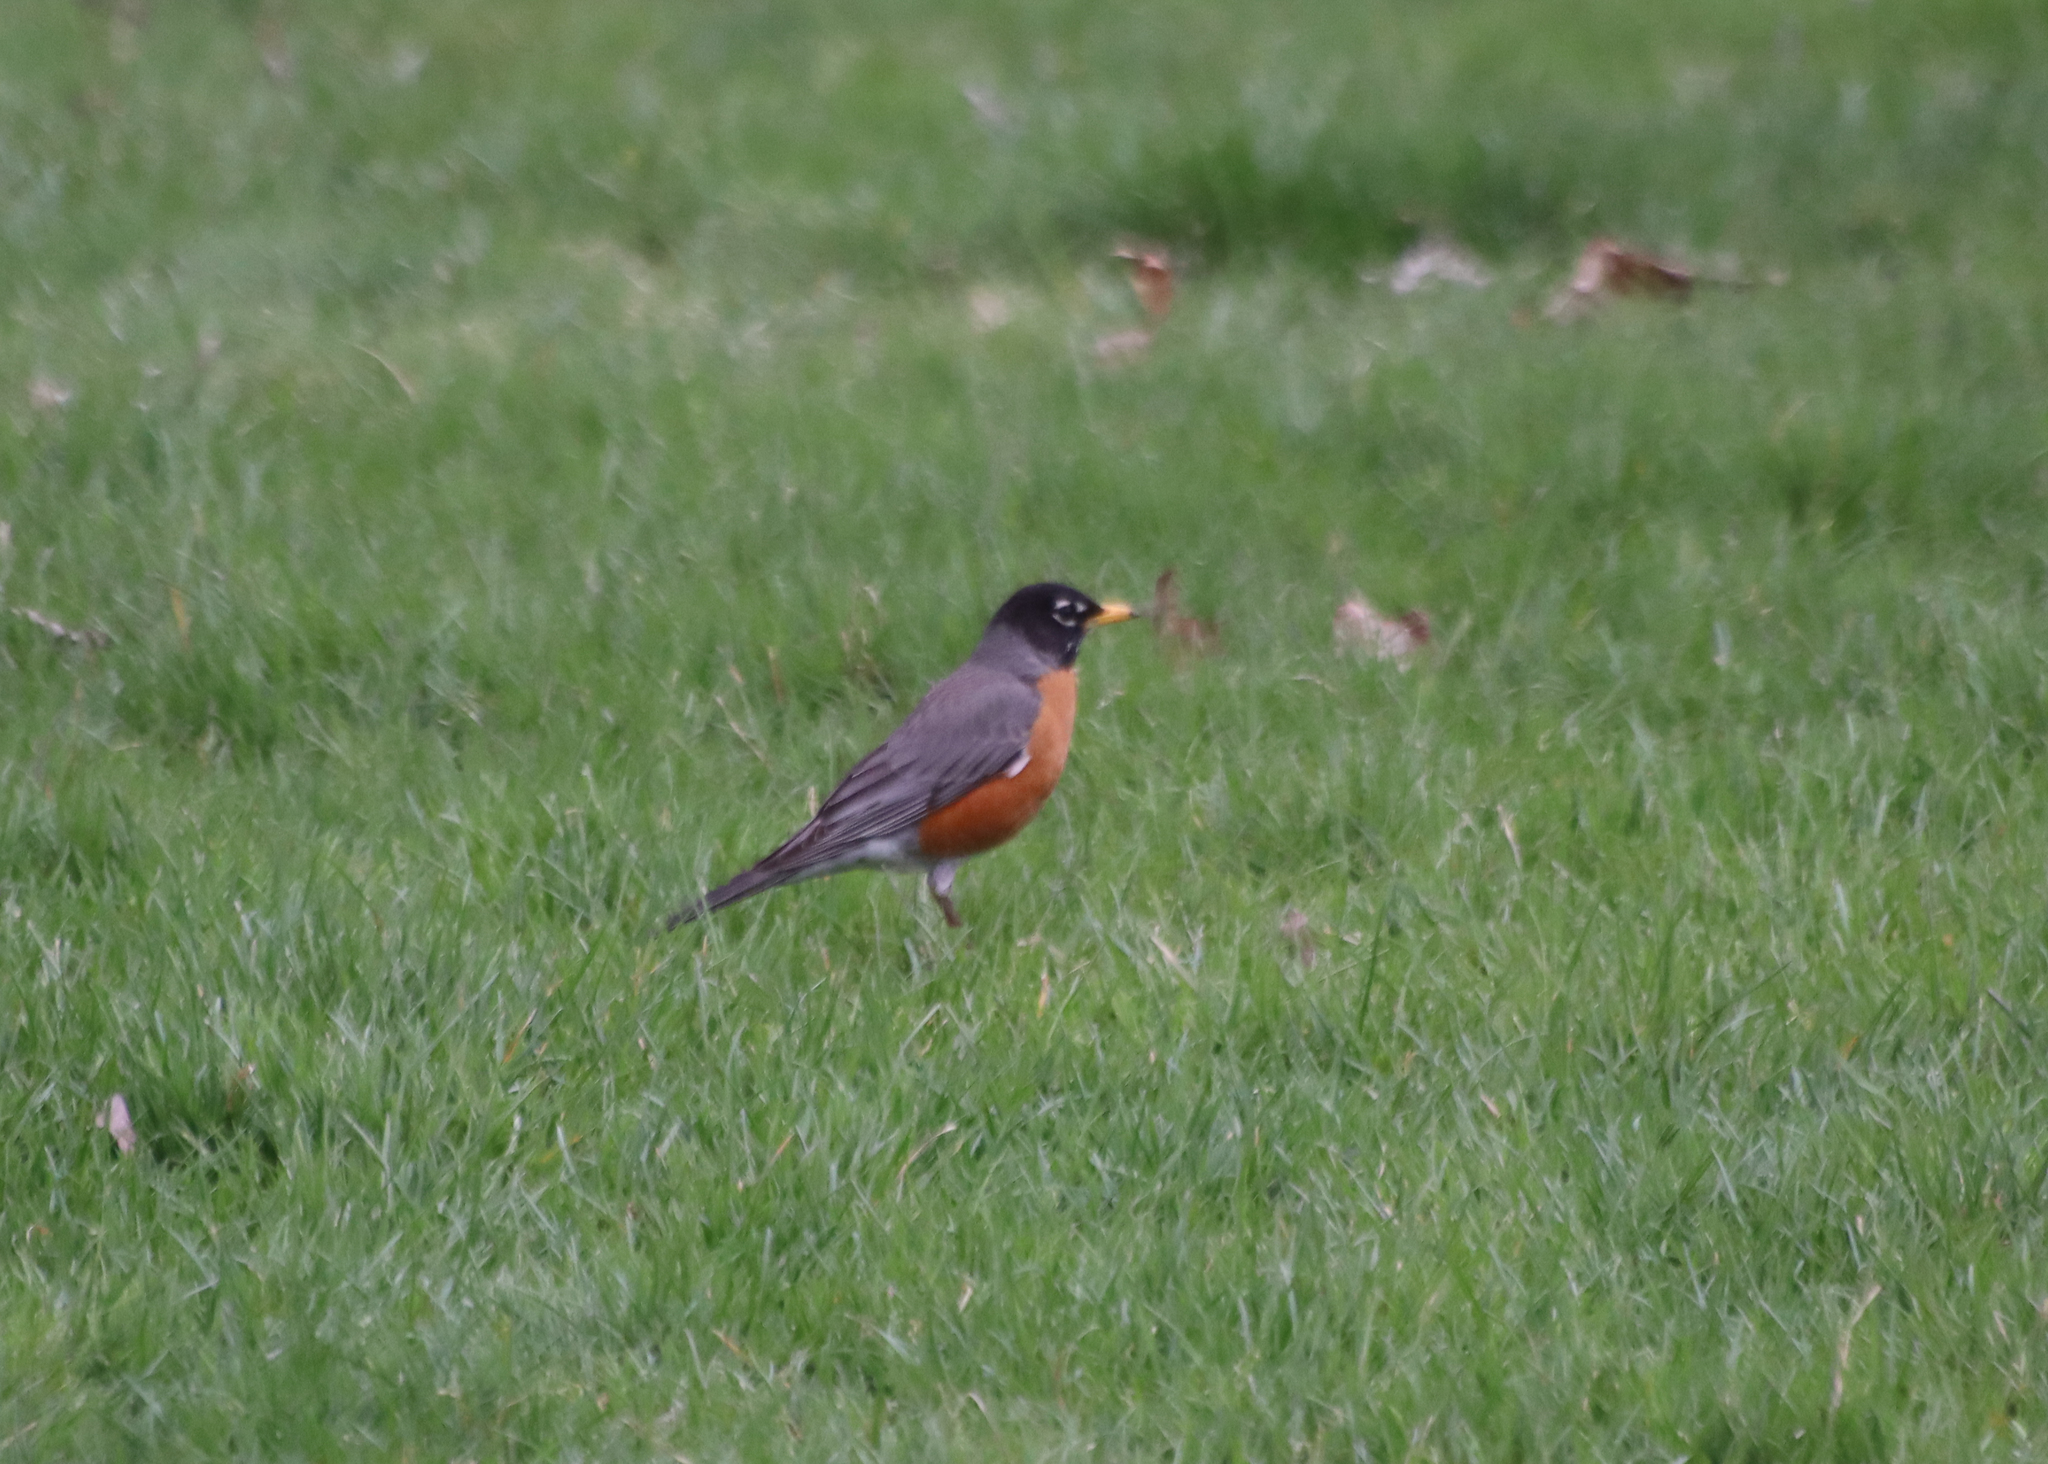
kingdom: Animalia
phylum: Chordata
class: Aves
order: Passeriformes
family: Turdidae
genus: Turdus
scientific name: Turdus migratorius
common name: American robin
